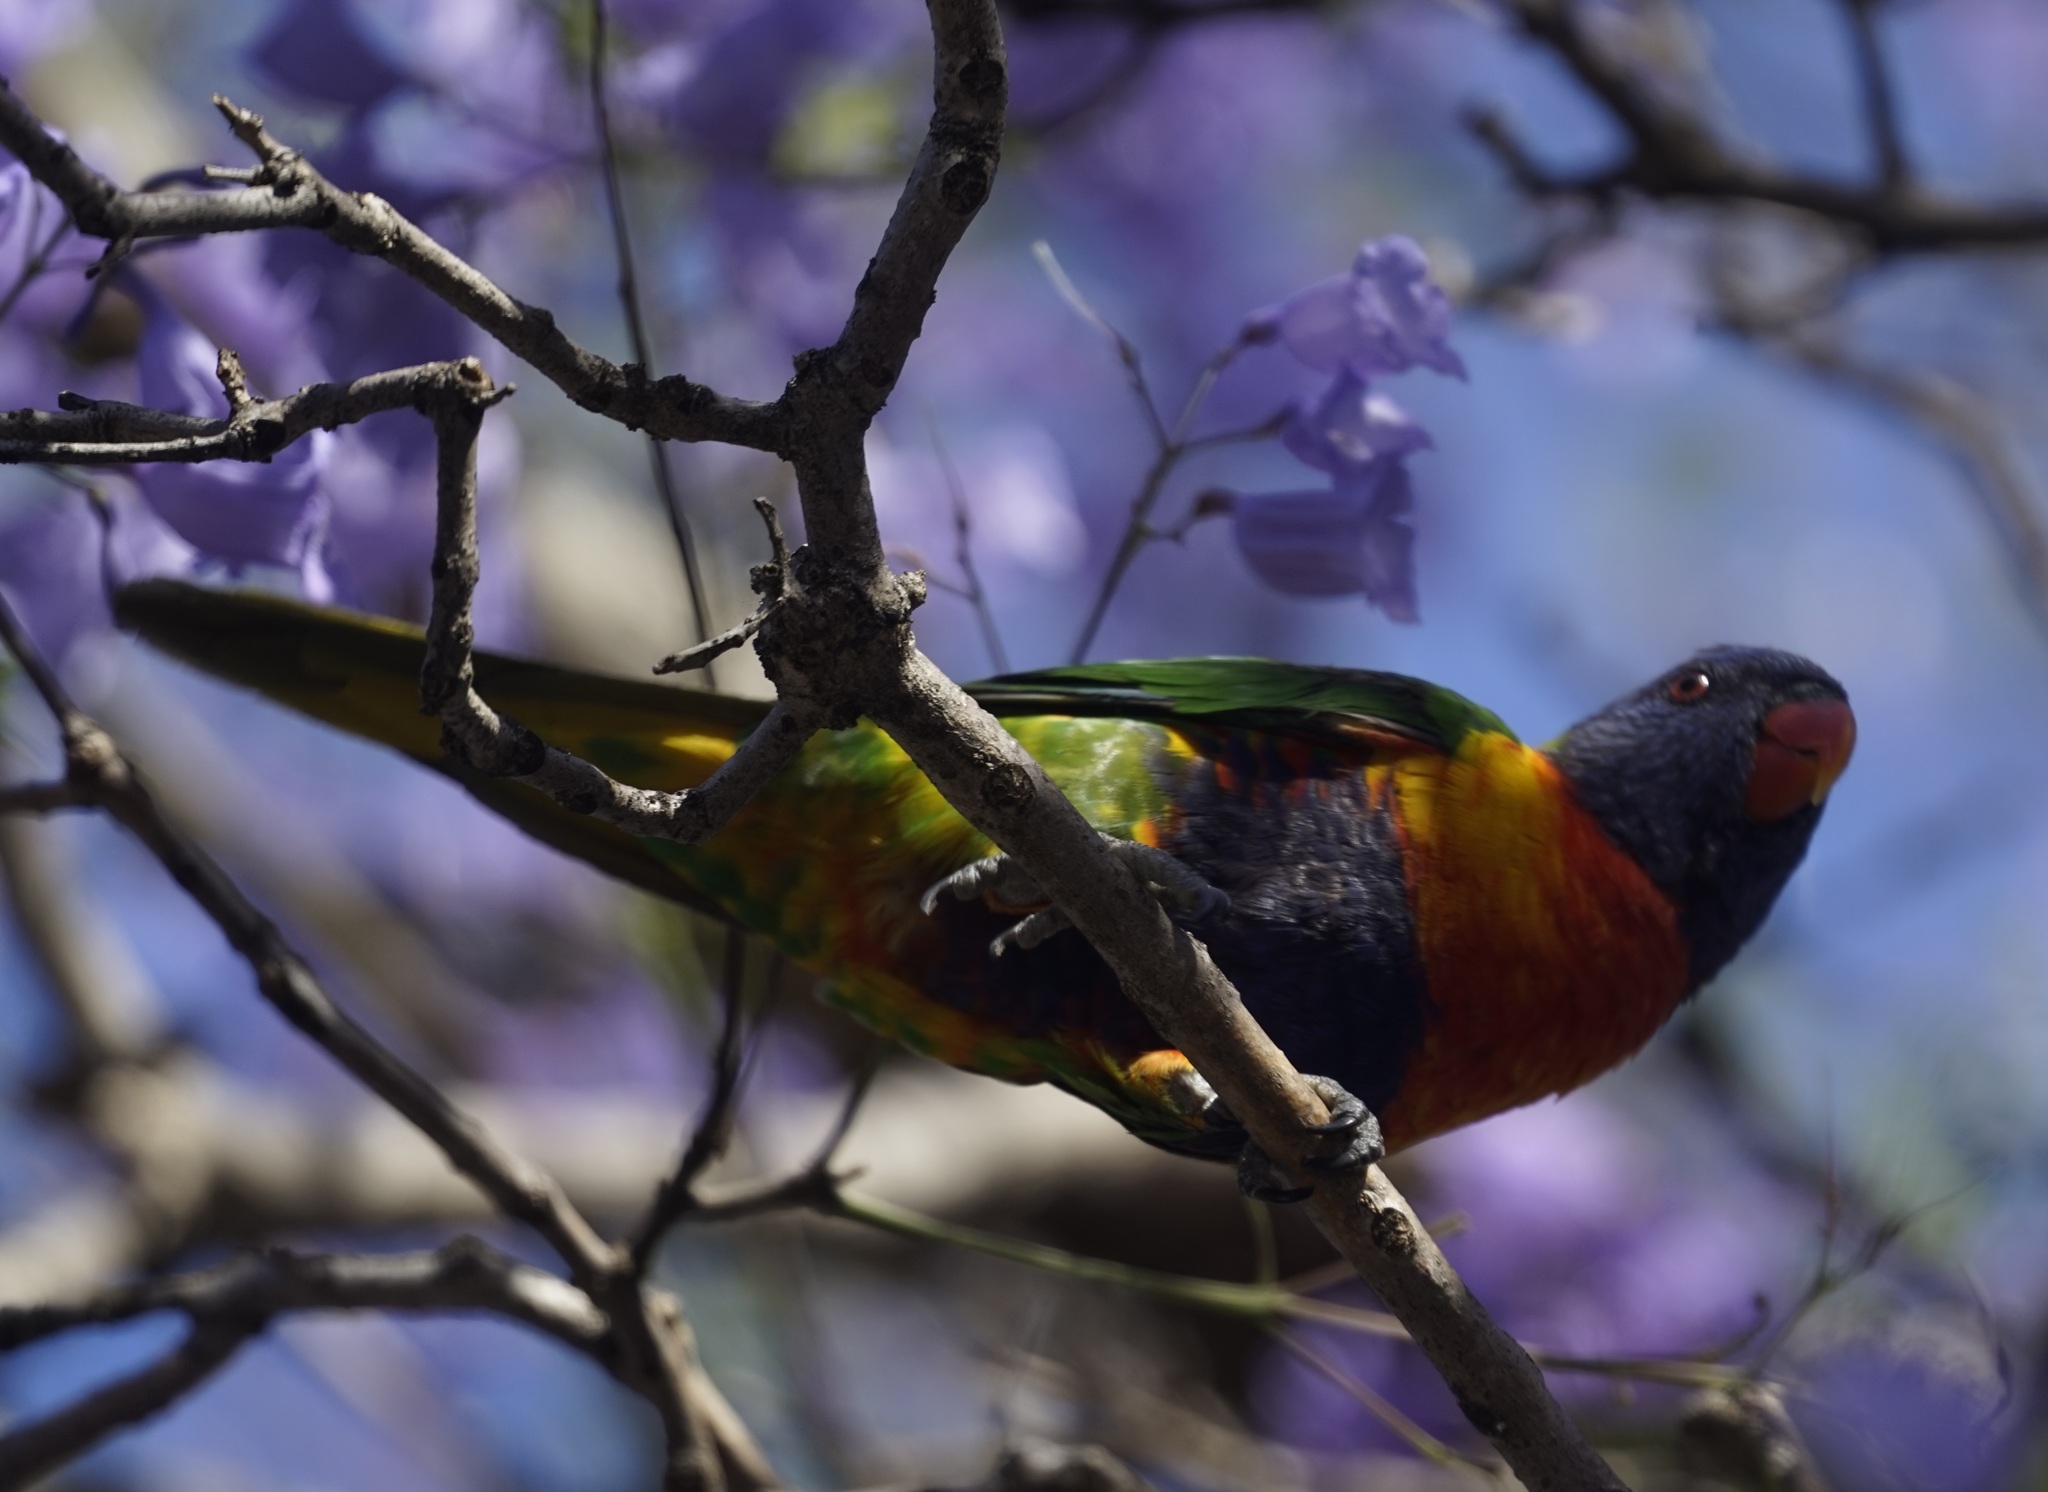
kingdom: Animalia
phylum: Chordata
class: Aves
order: Psittaciformes
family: Psittacidae
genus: Trichoglossus
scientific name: Trichoglossus haematodus
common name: Coconut lorikeet
